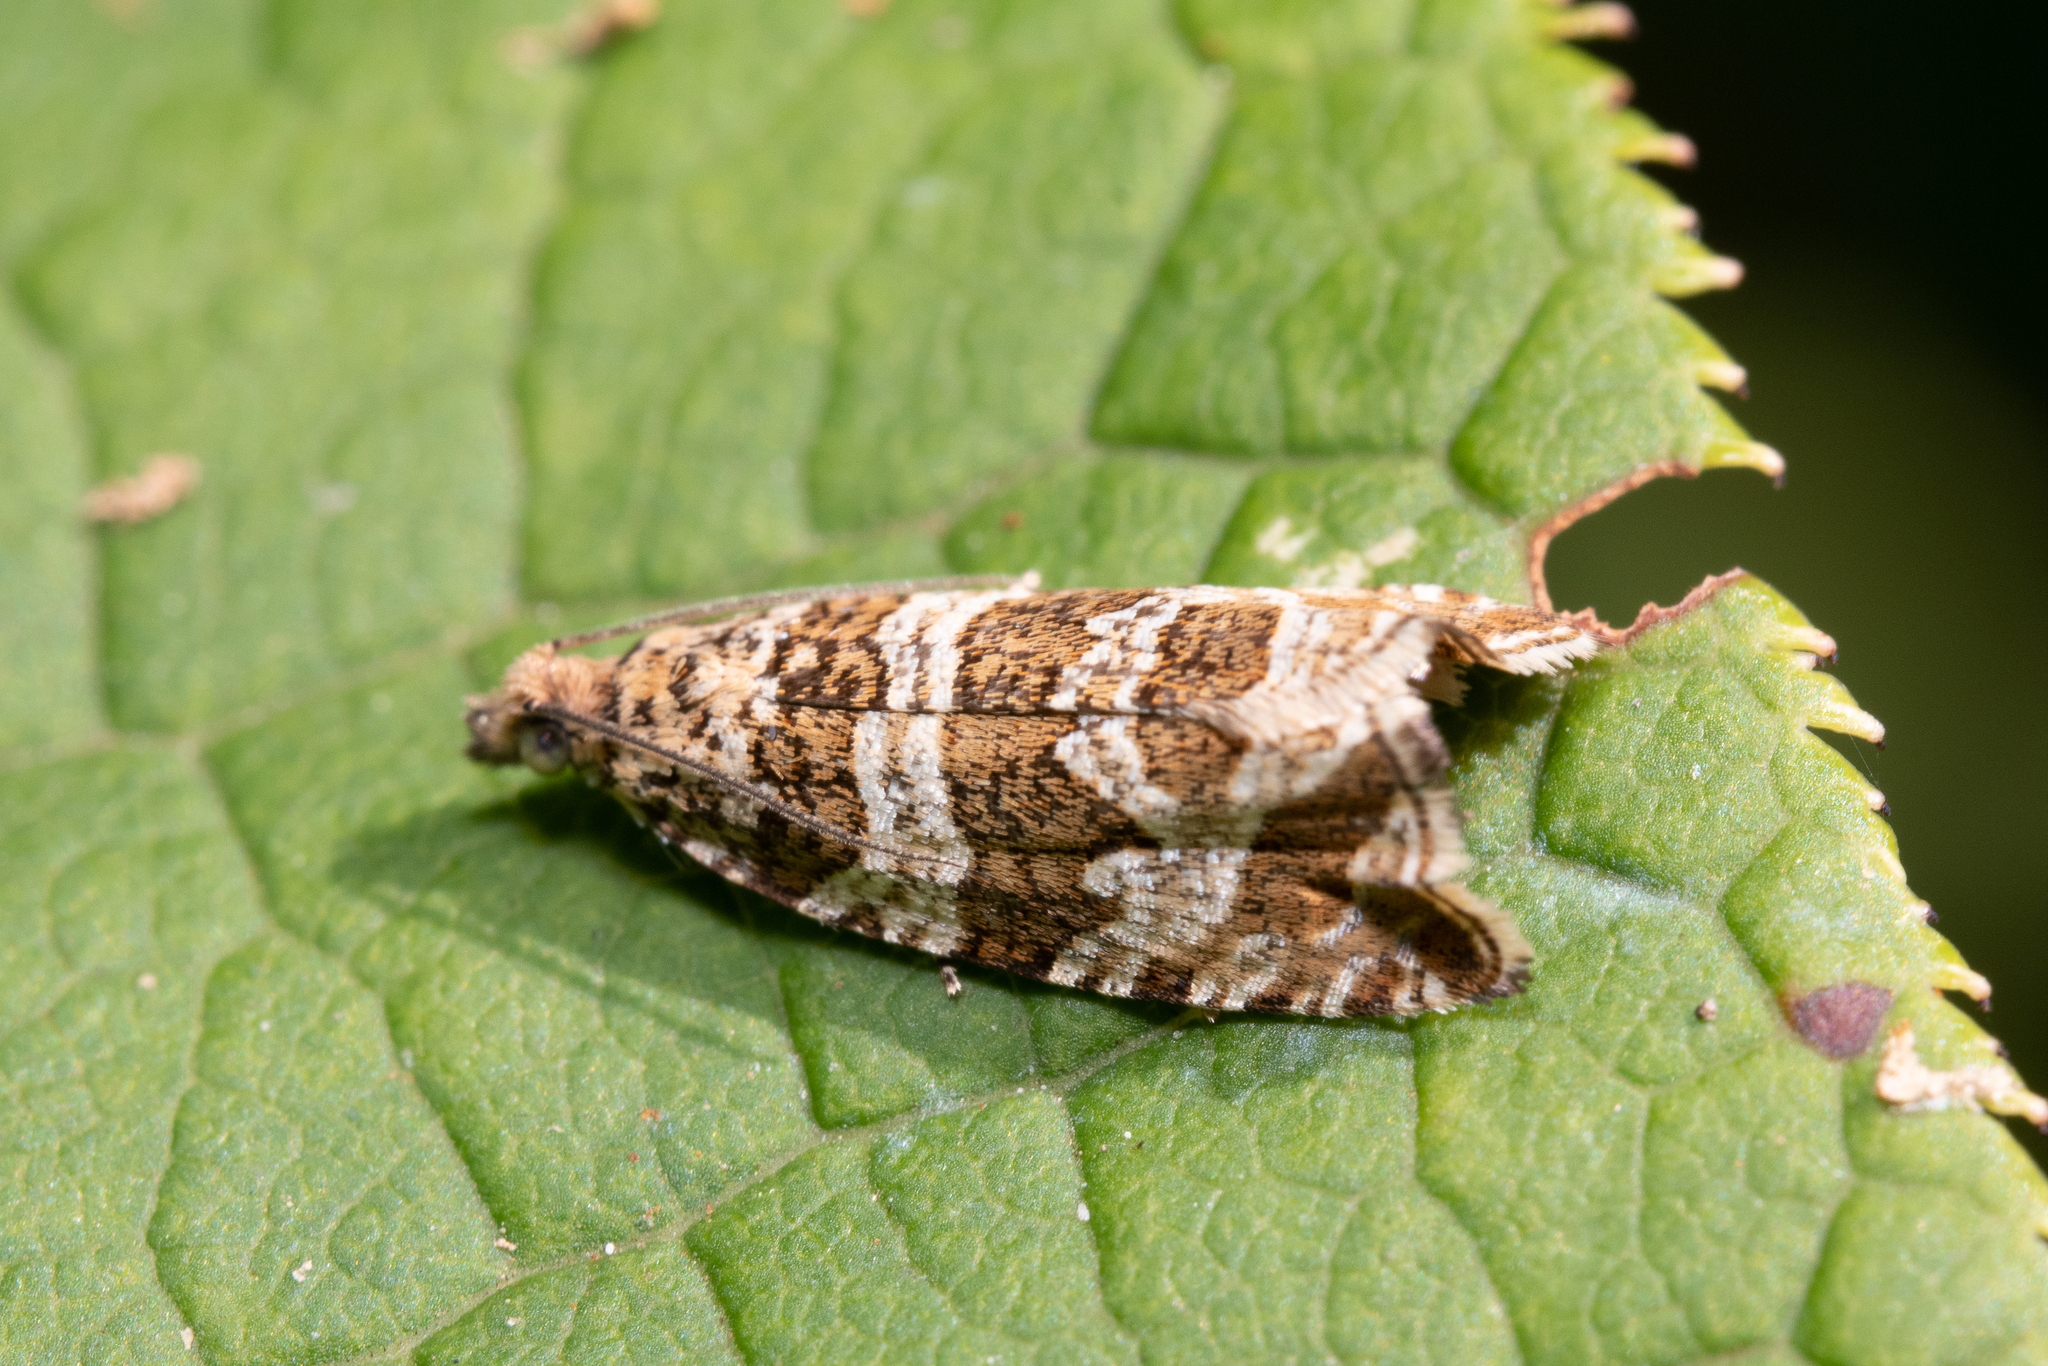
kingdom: Animalia
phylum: Arthropoda
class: Insecta
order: Lepidoptera
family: Tortricidae
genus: Syricoris
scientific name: Syricoris rivulana
